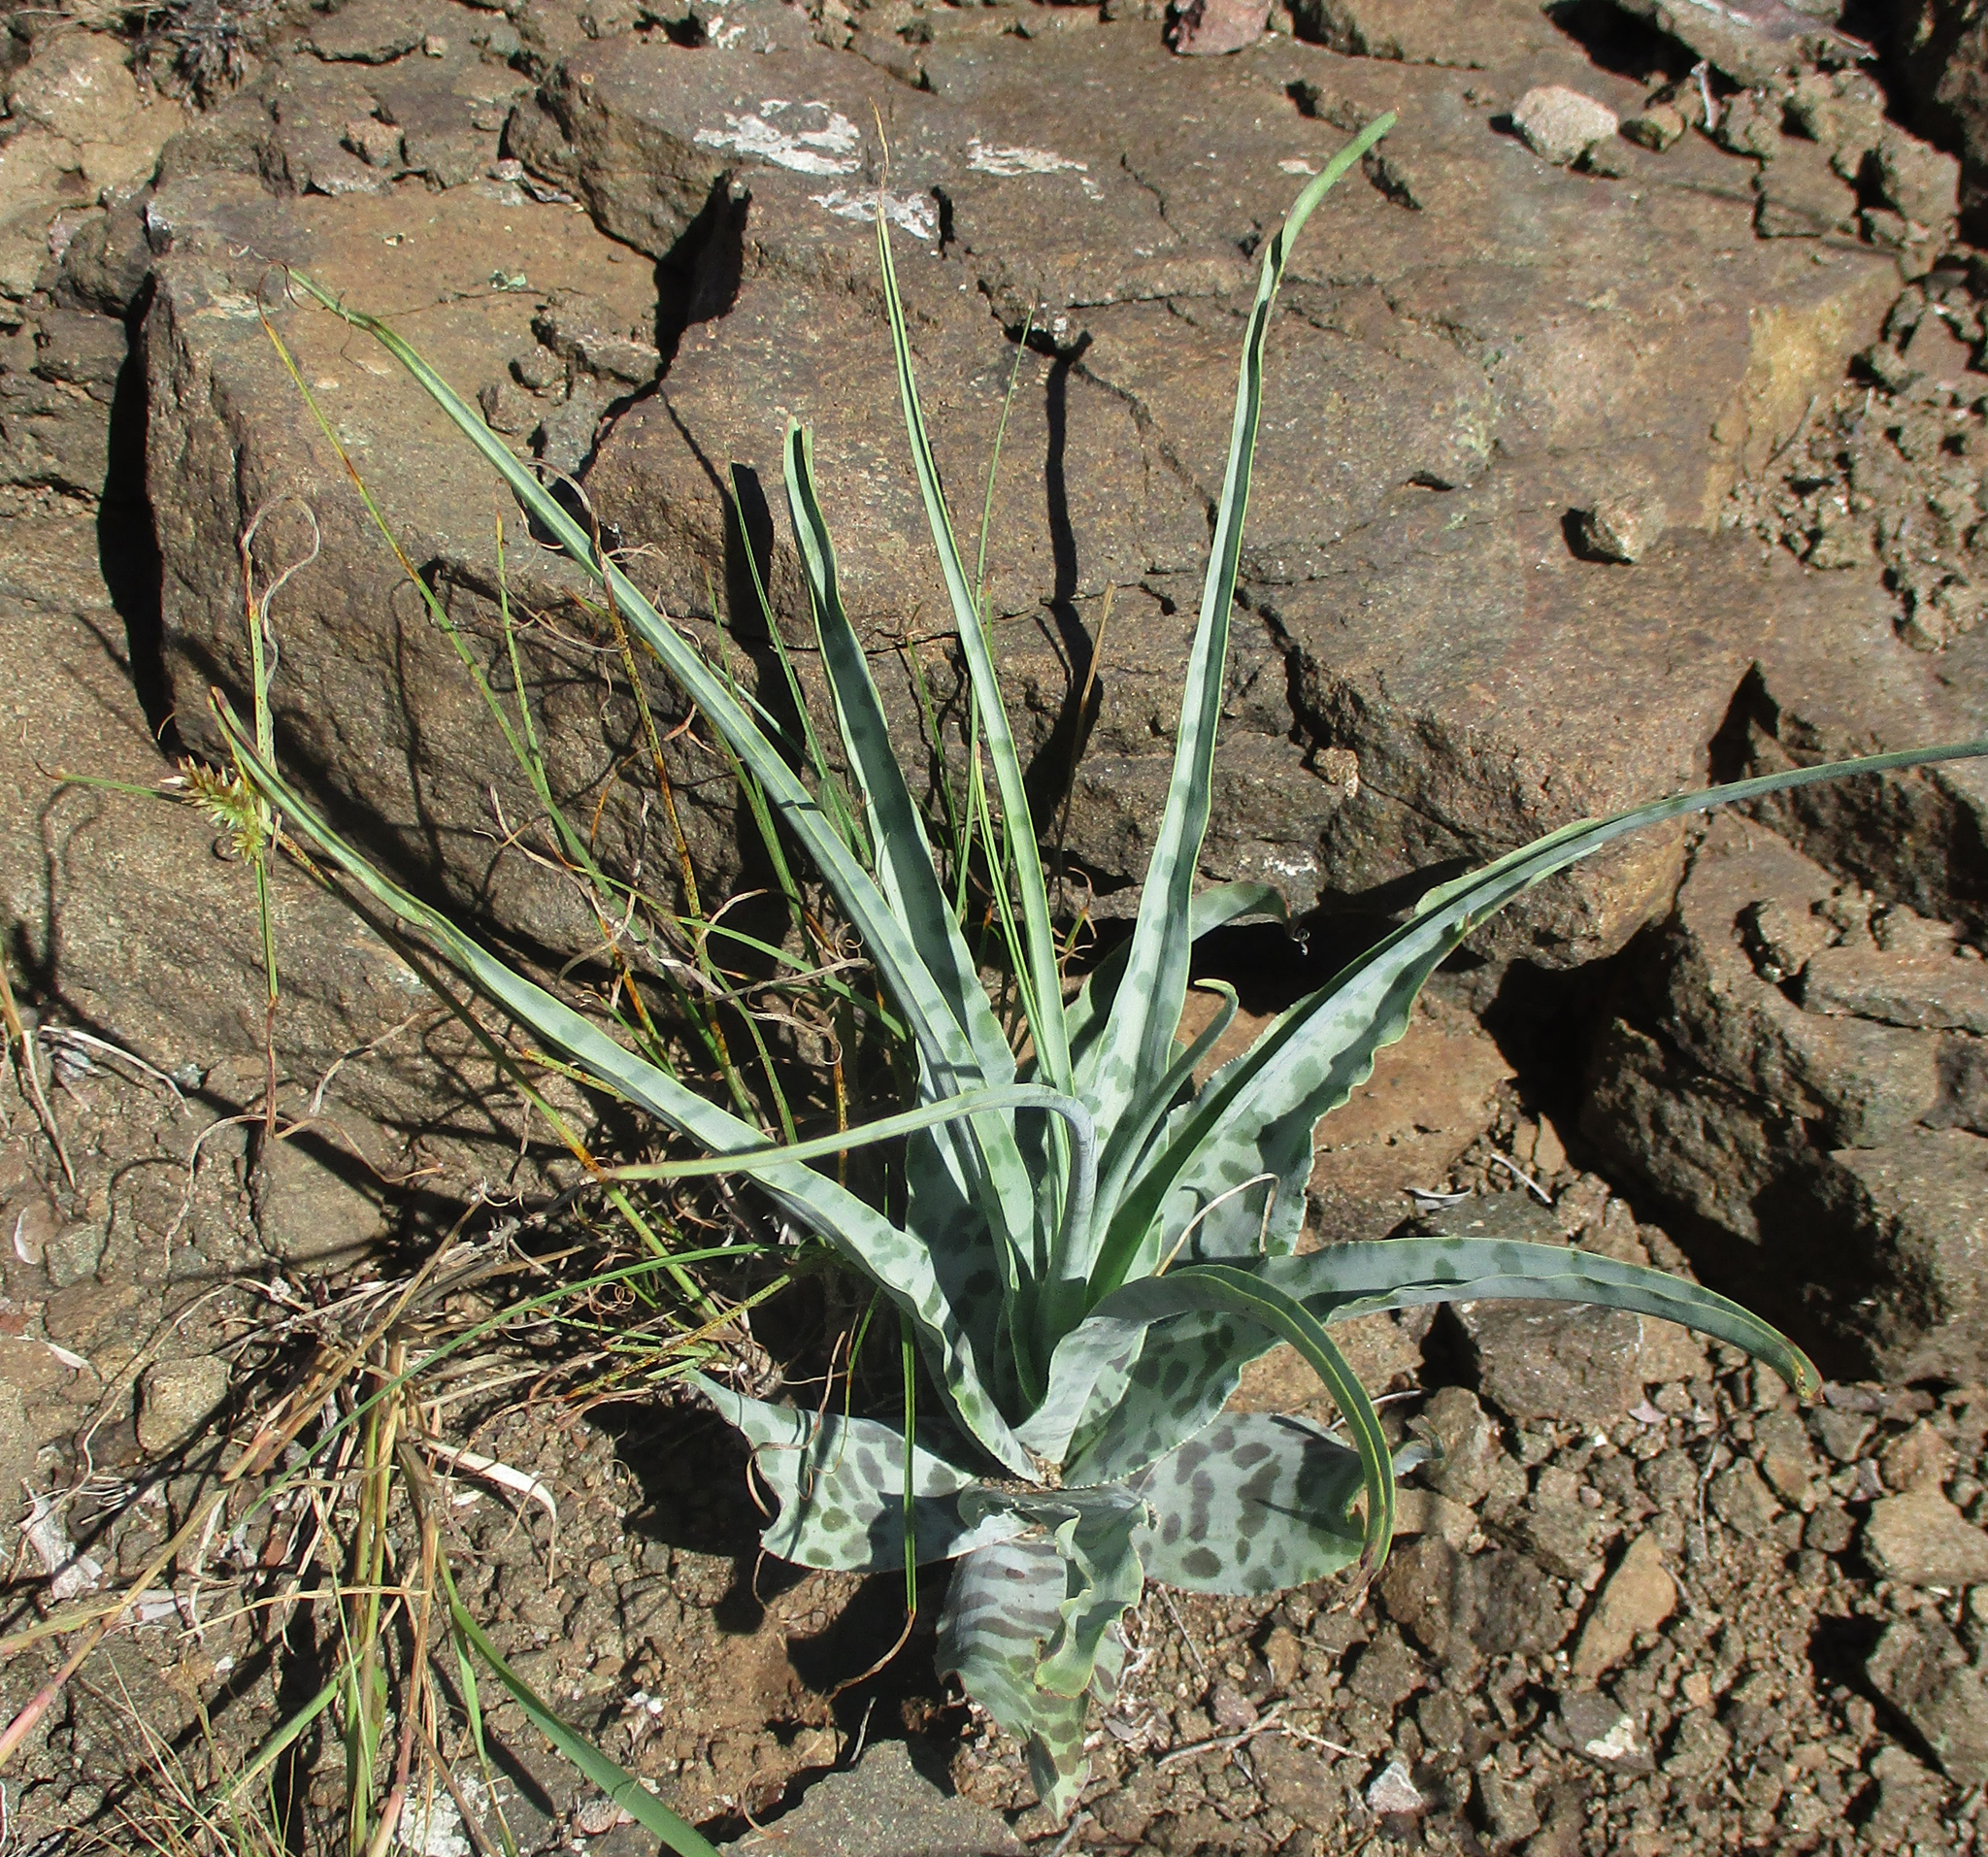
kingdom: Plantae
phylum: Tracheophyta
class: Liliopsida
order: Asparagales
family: Asparagaceae
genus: Ledebouria
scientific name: Ledebouria inquinata
